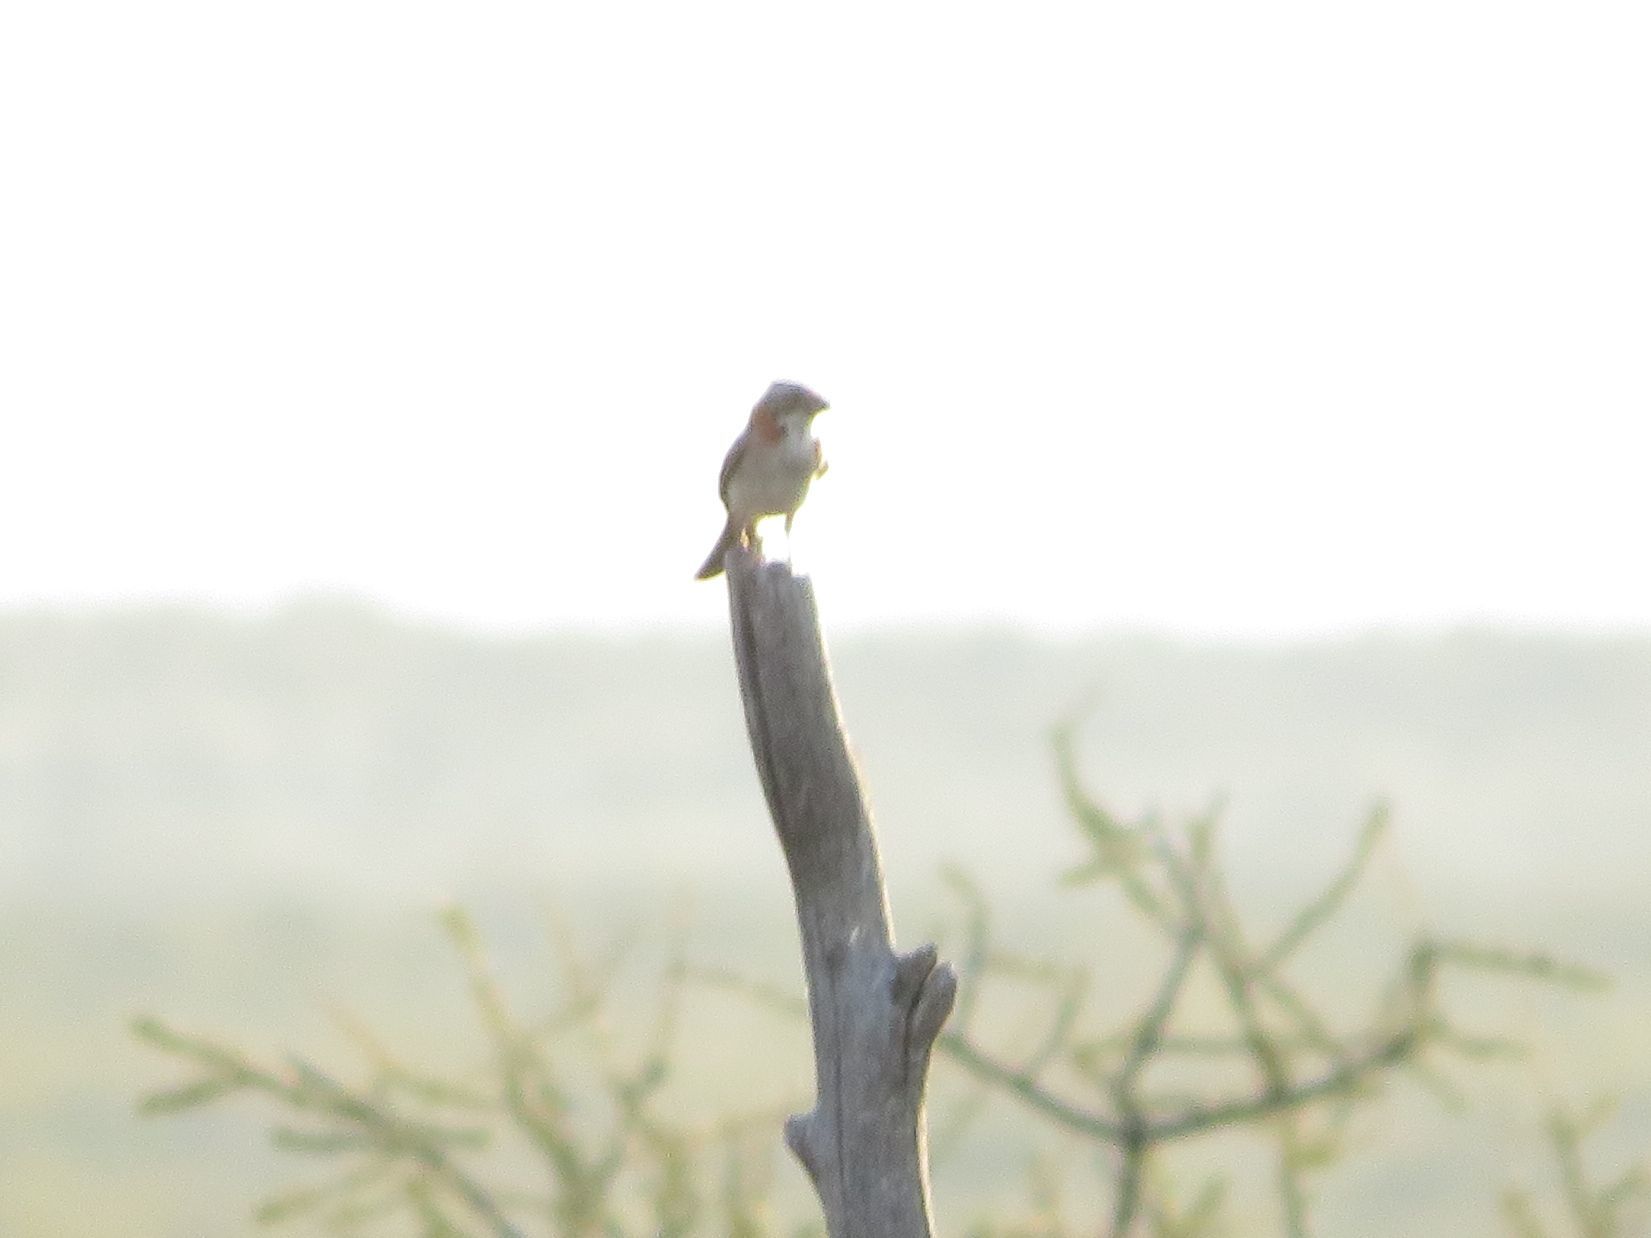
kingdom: Animalia
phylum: Chordata
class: Aves
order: Passeriformes
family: Passerellidae
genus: Zonotrichia
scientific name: Zonotrichia capensis
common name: Rufous-collared sparrow
